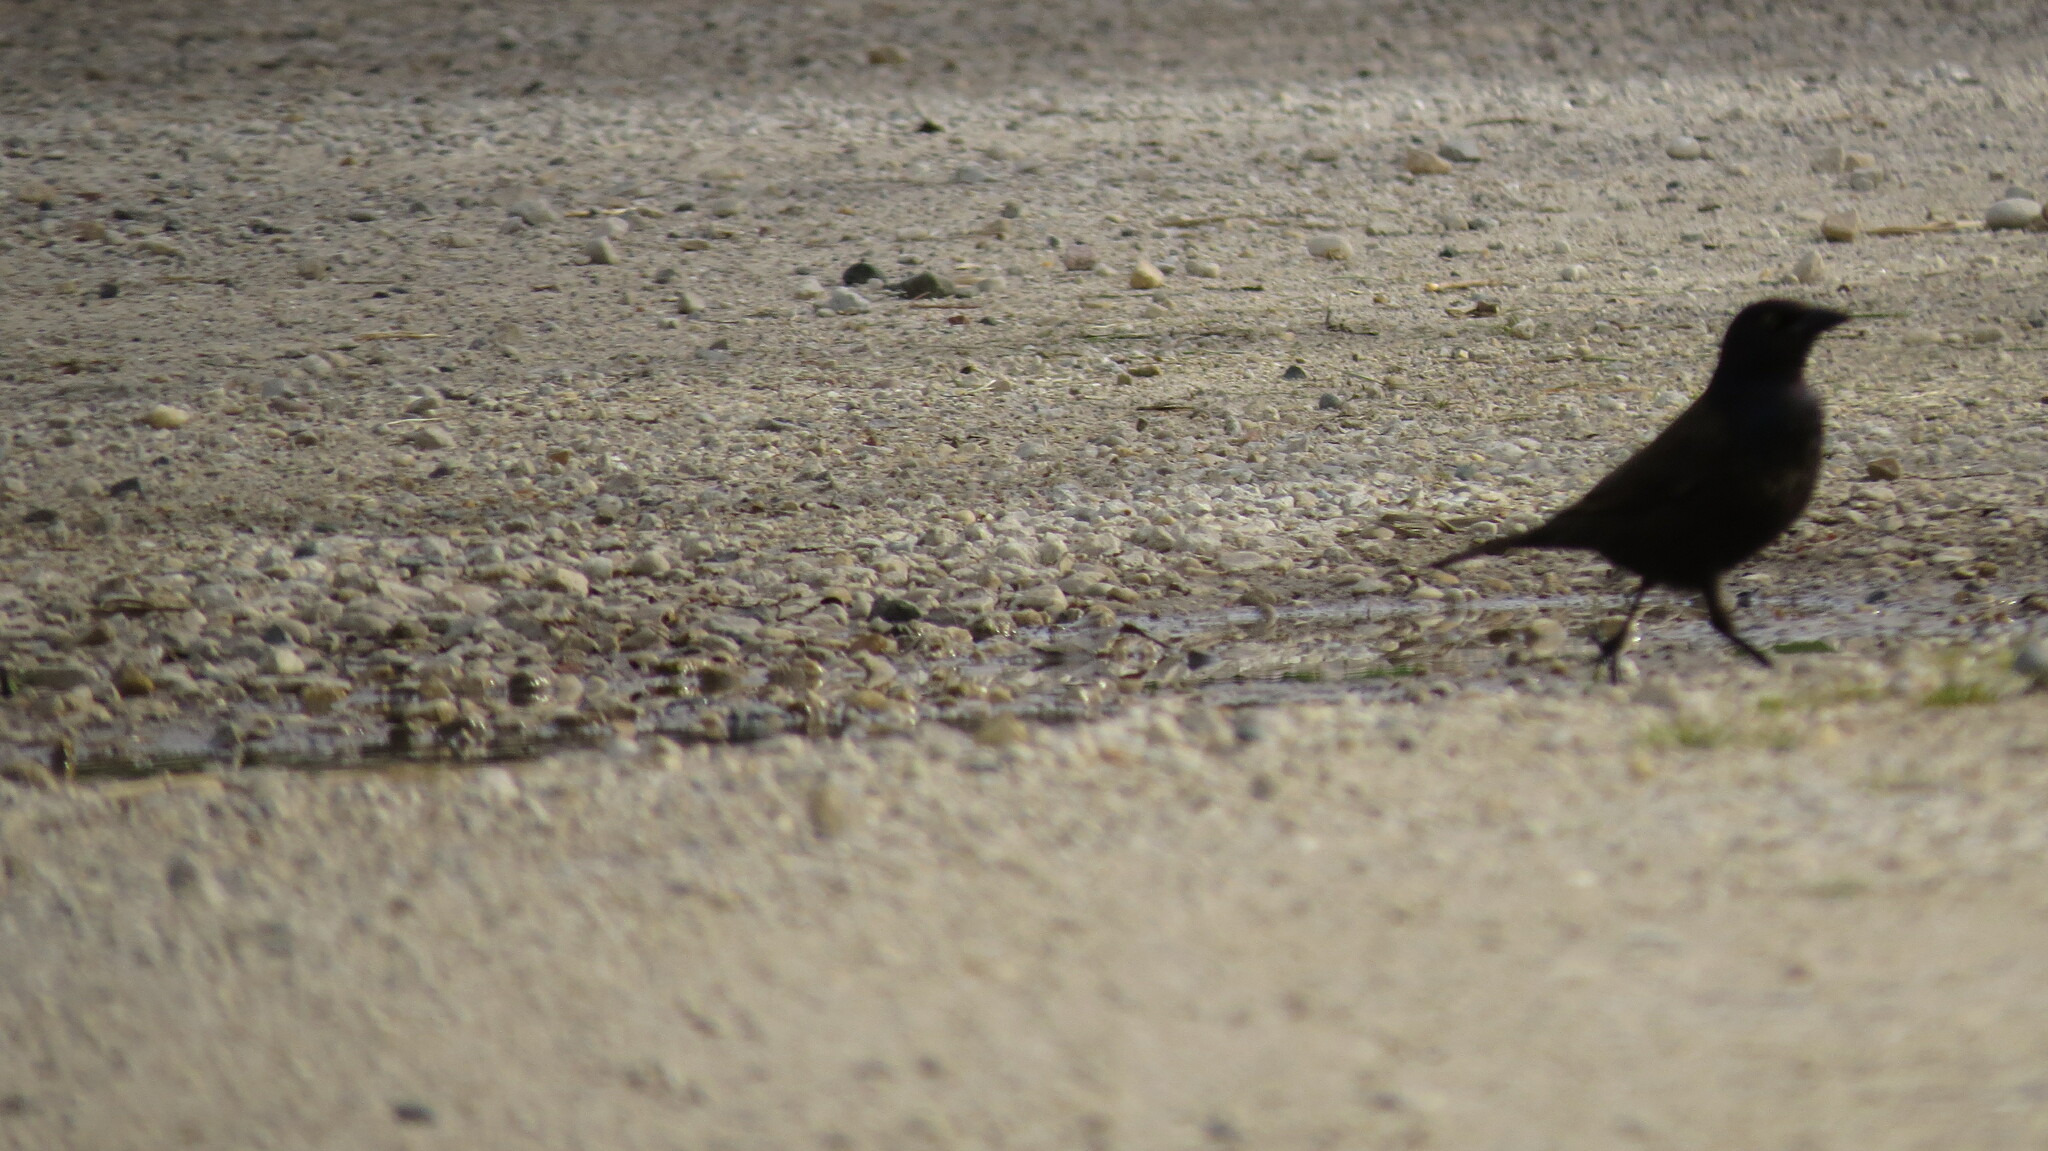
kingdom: Animalia
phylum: Chordata
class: Aves
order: Passeriformes
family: Icteridae
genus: Quiscalus
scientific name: Quiscalus quiscula
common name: Common grackle
